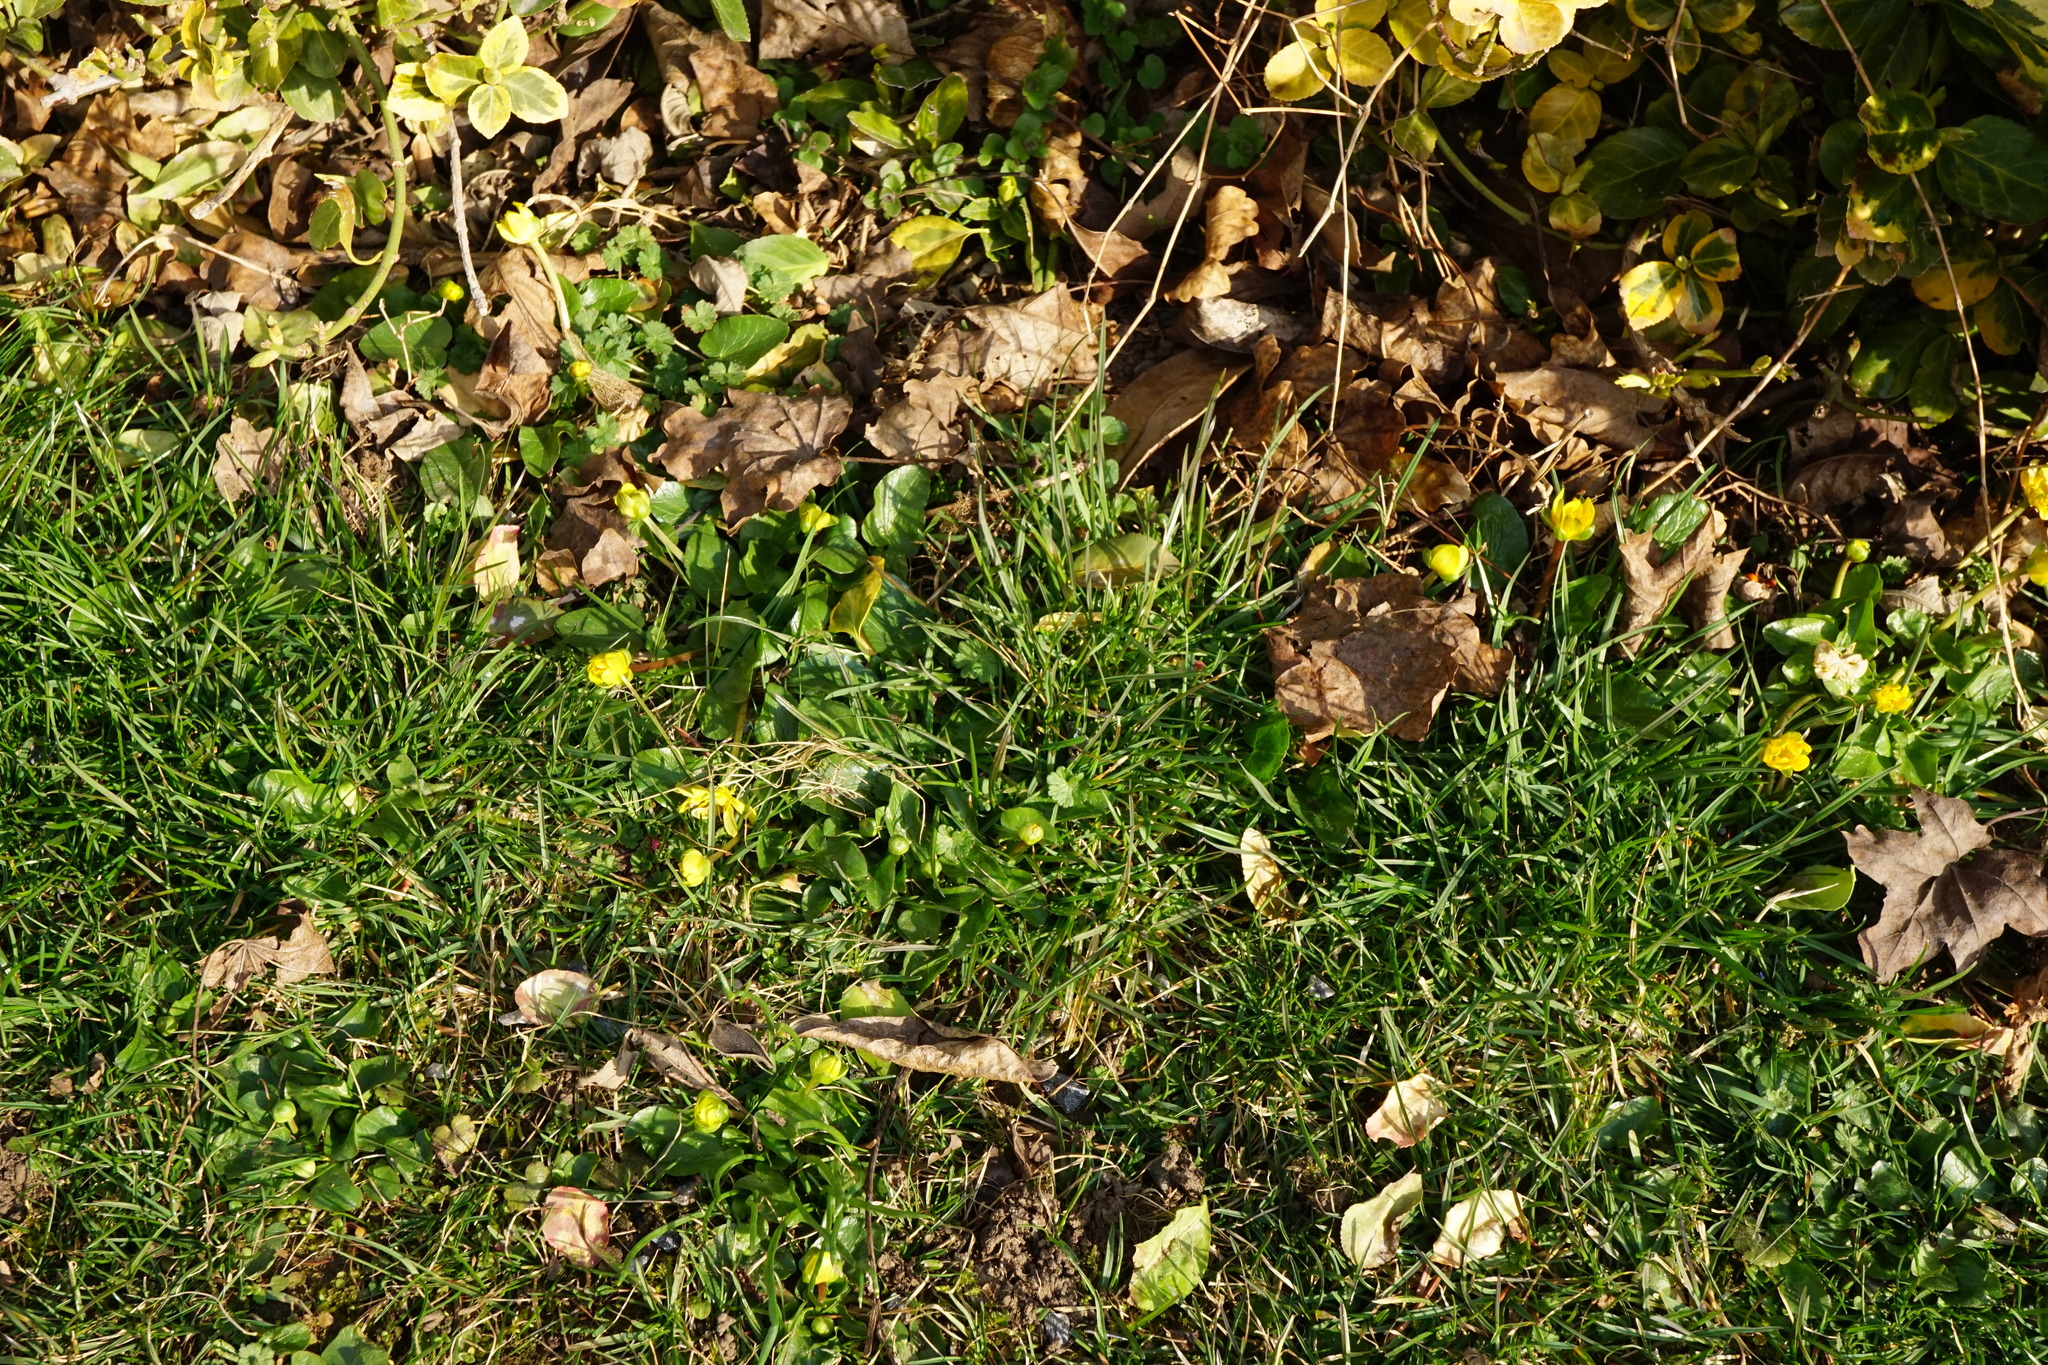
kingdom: Plantae
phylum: Tracheophyta
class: Magnoliopsida
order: Ranunculales
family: Ranunculaceae
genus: Ficaria
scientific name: Ficaria verna
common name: Lesser celandine
